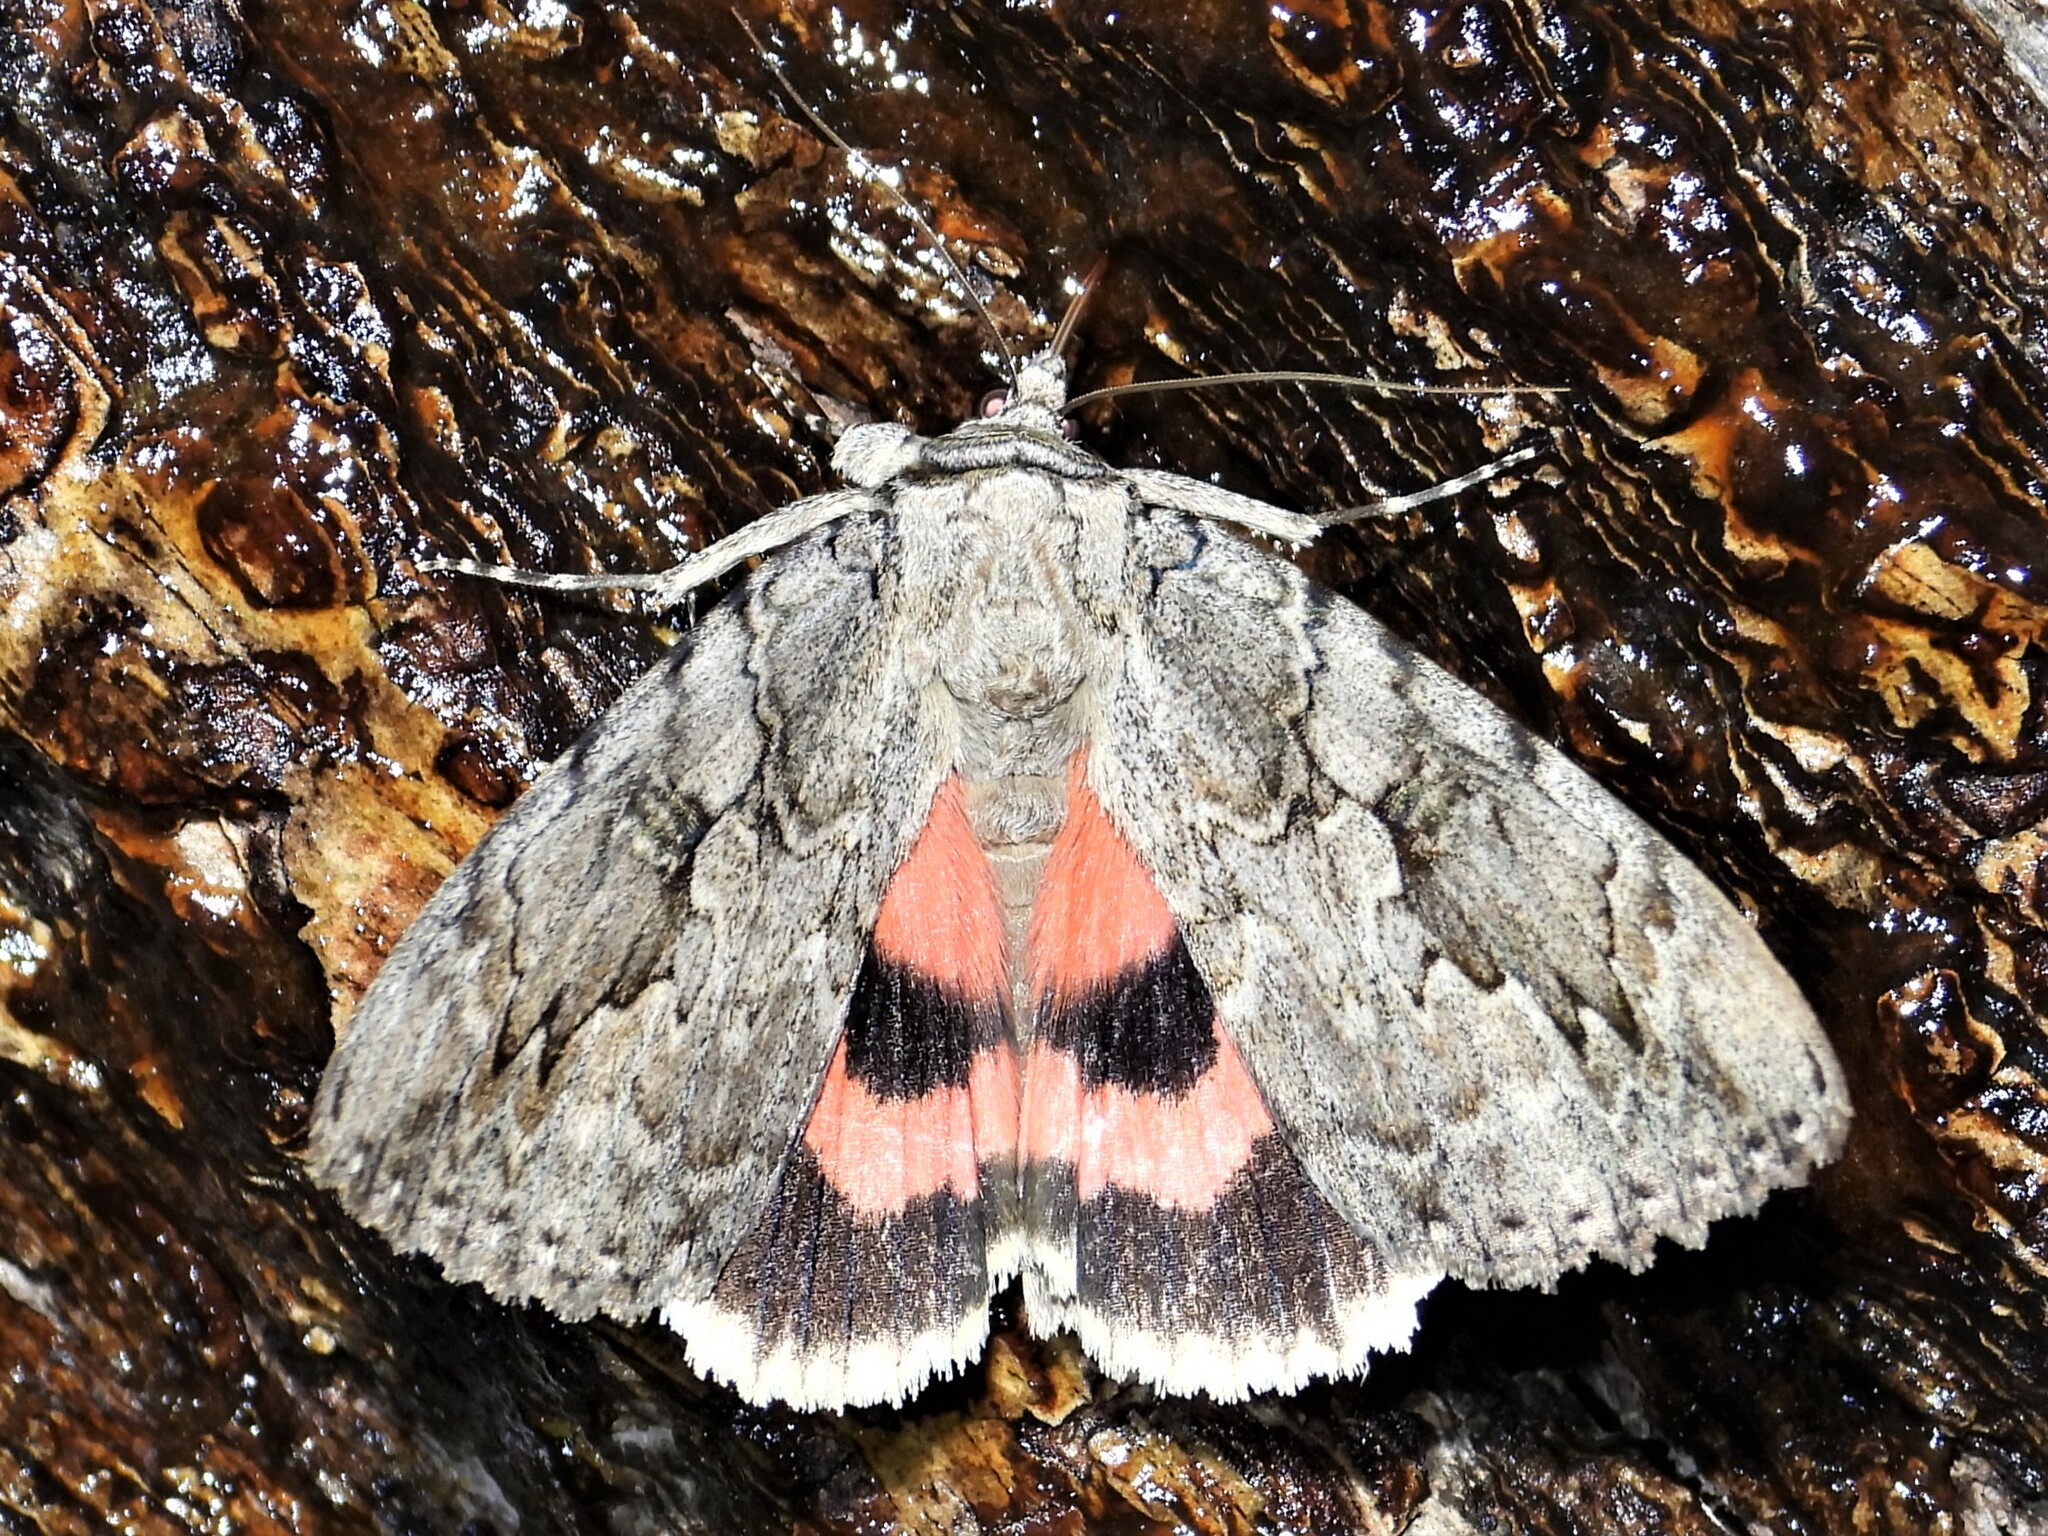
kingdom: Animalia
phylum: Arthropoda
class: Insecta
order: Lepidoptera
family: Erebidae
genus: Catocala
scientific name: Catocala amatrix
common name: Sweetheart underwing
